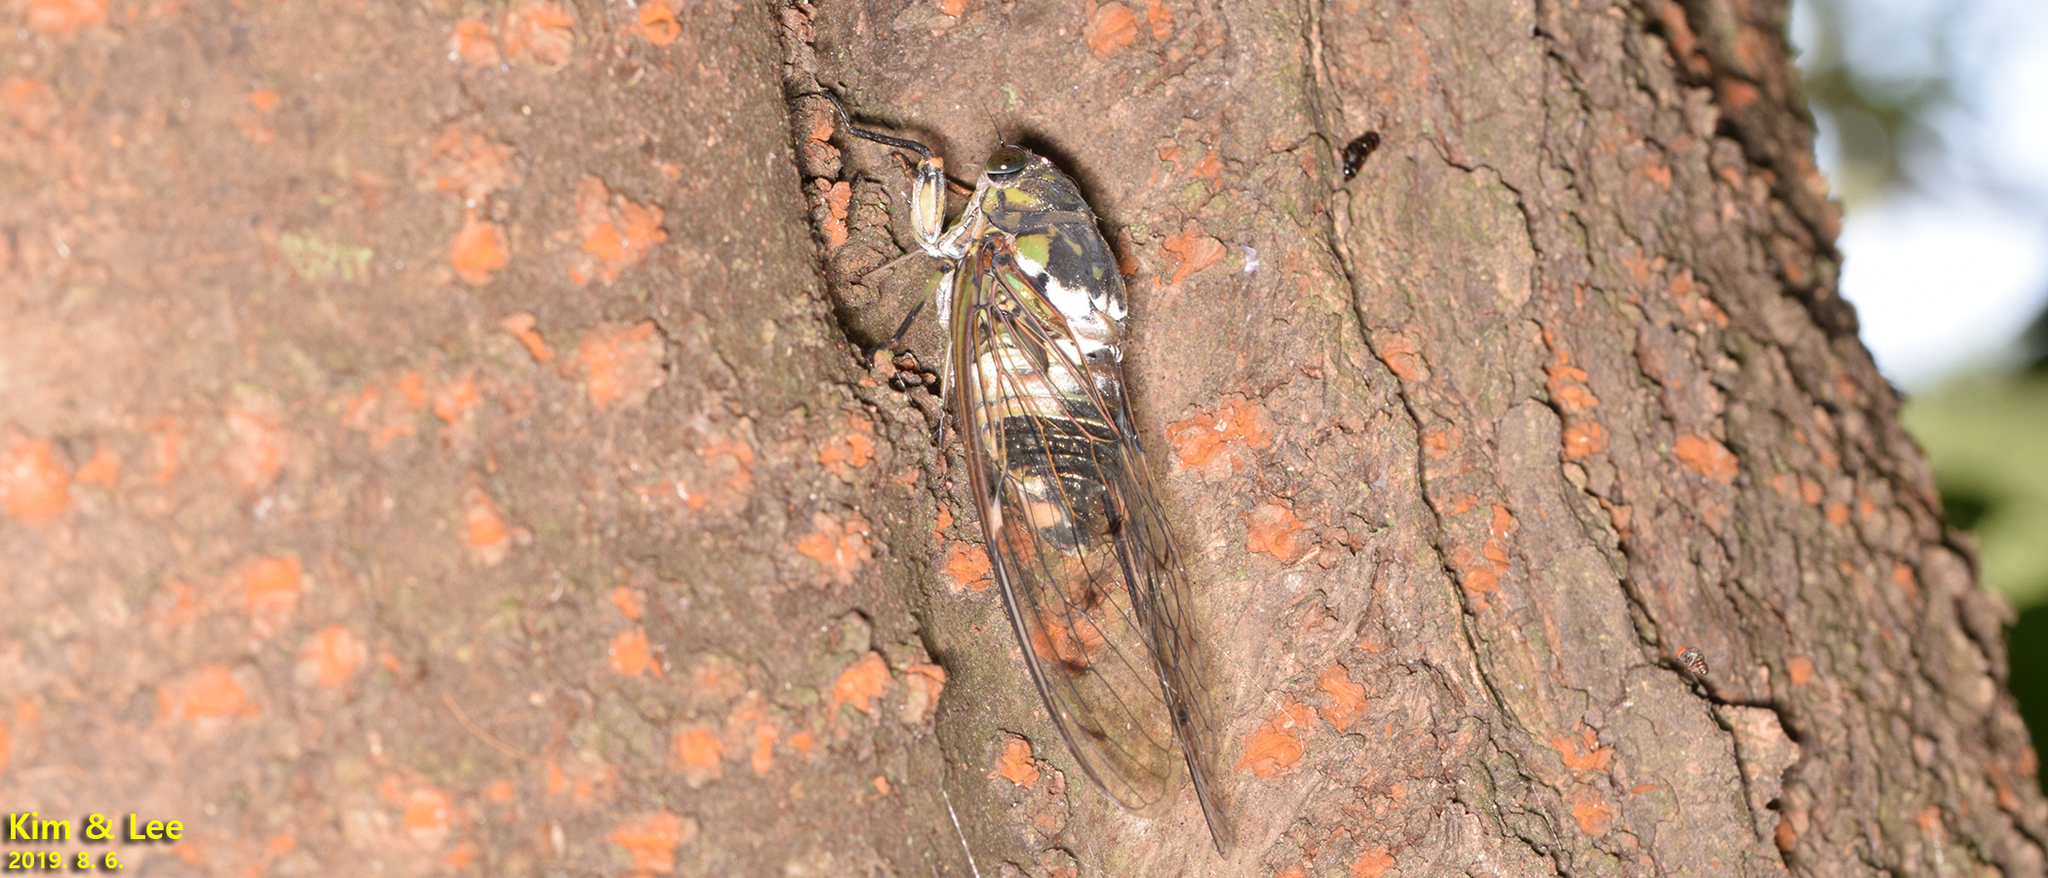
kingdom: Animalia
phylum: Arthropoda
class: Insecta
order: Hemiptera
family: Cicadidae
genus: Hyalessa
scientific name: Hyalessa maculaticollis
